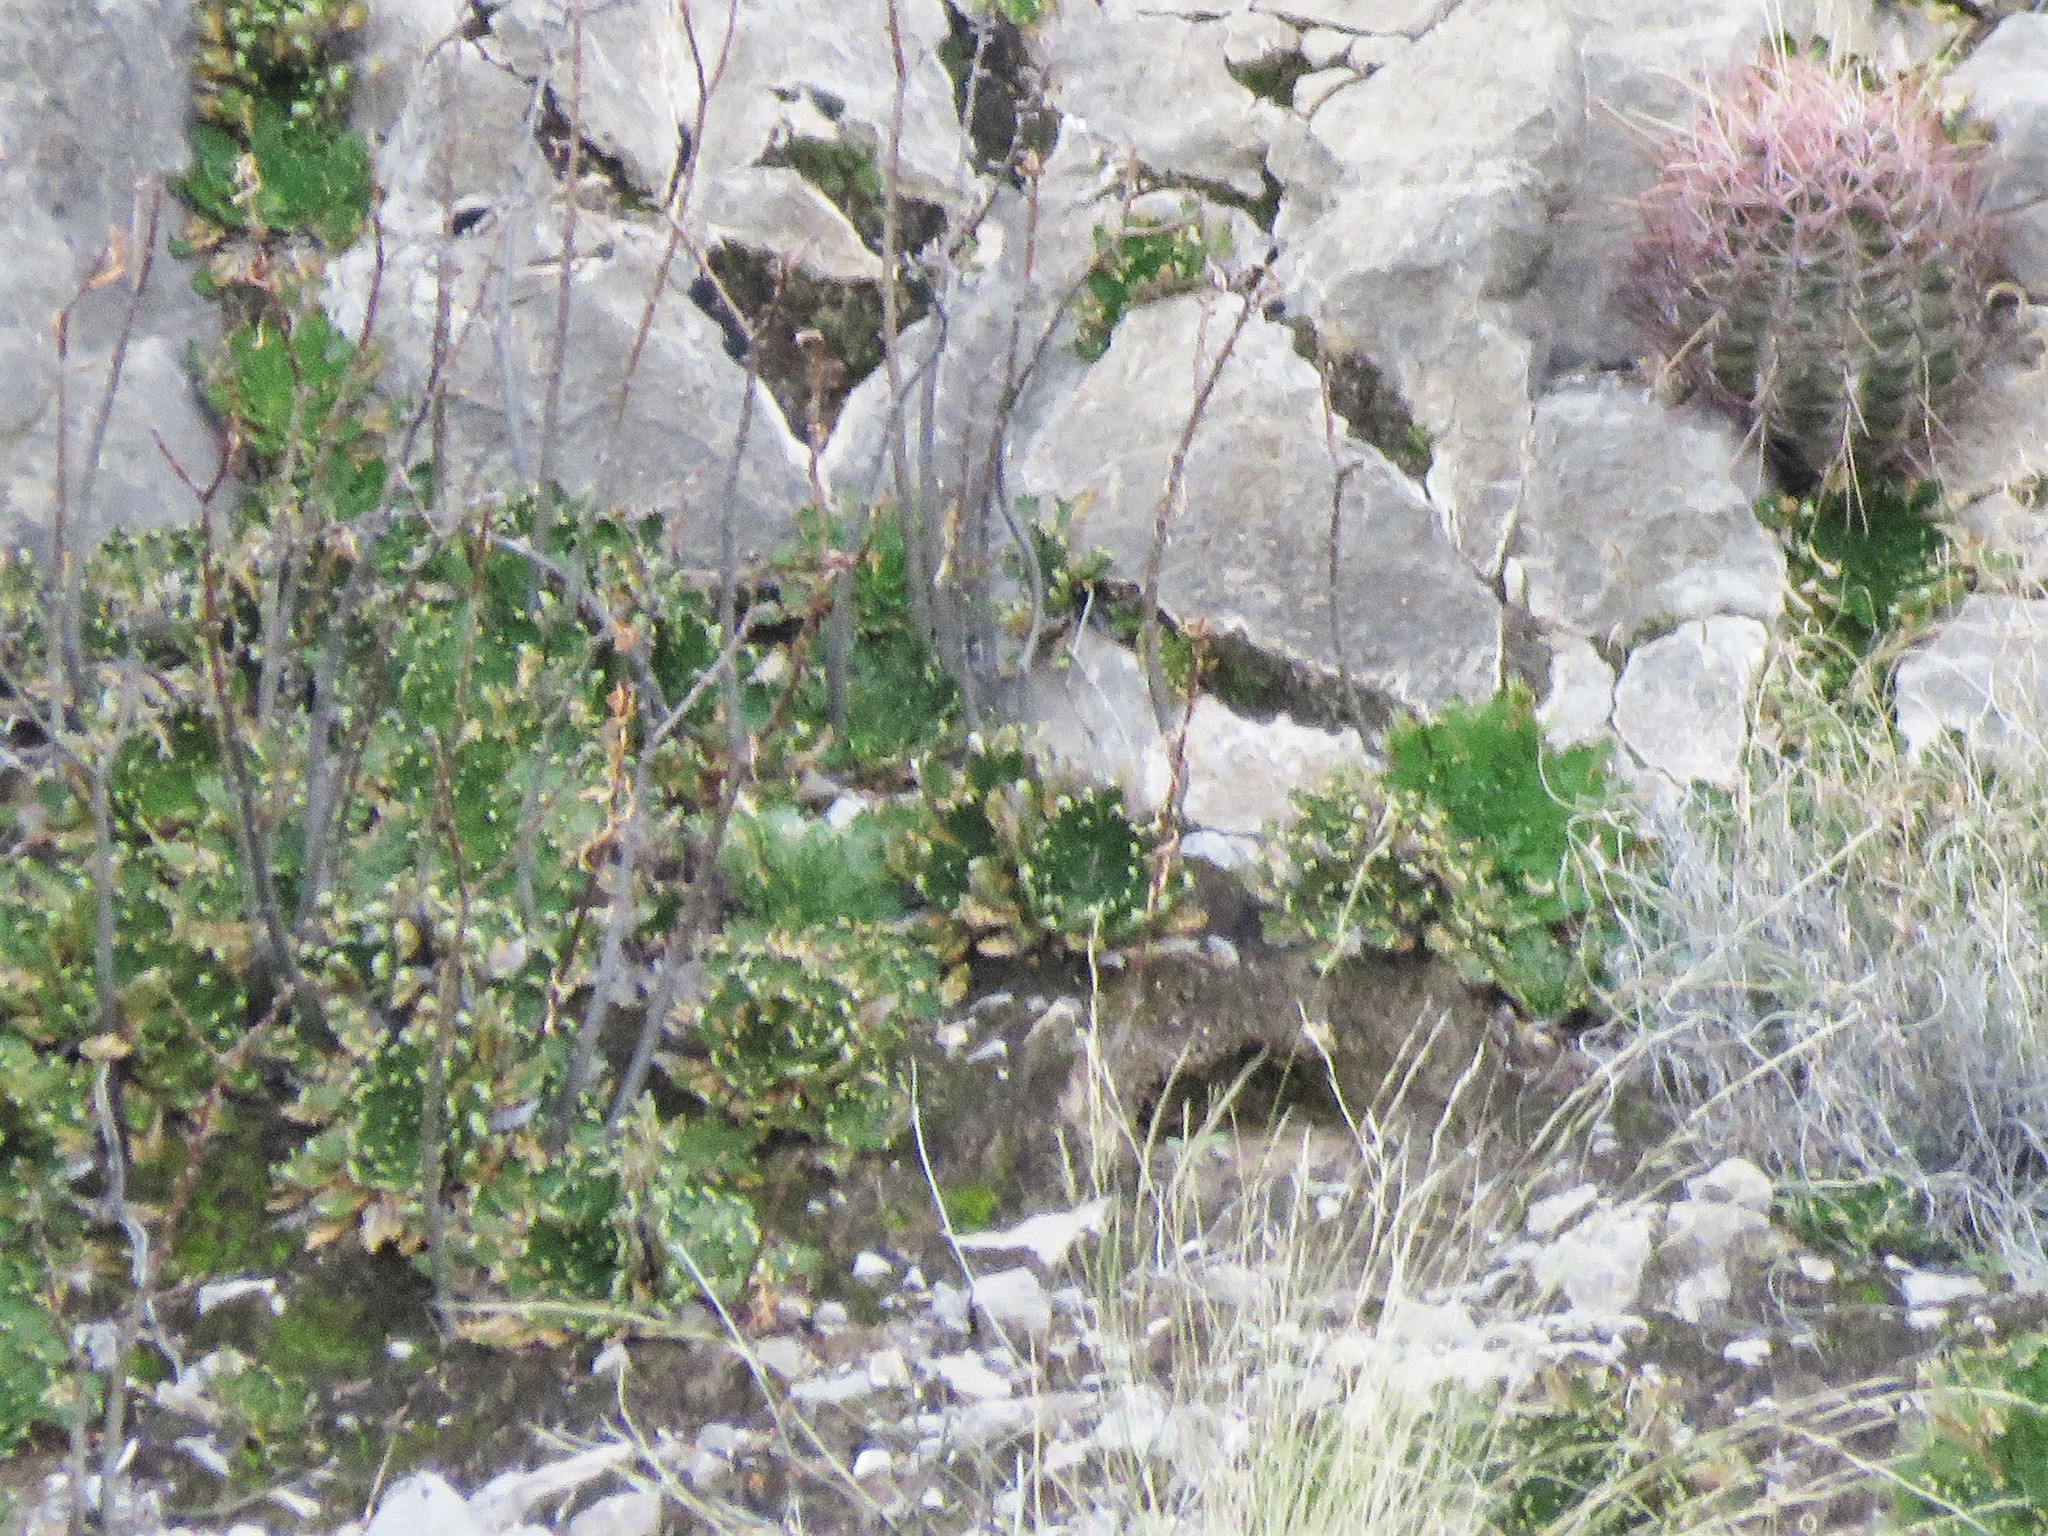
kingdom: Plantae
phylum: Tracheophyta
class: Lycopodiopsida
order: Selaginellales
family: Selaginellaceae
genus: Selaginella
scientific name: Selaginella lepidophylla
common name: Rose-of-jericho
